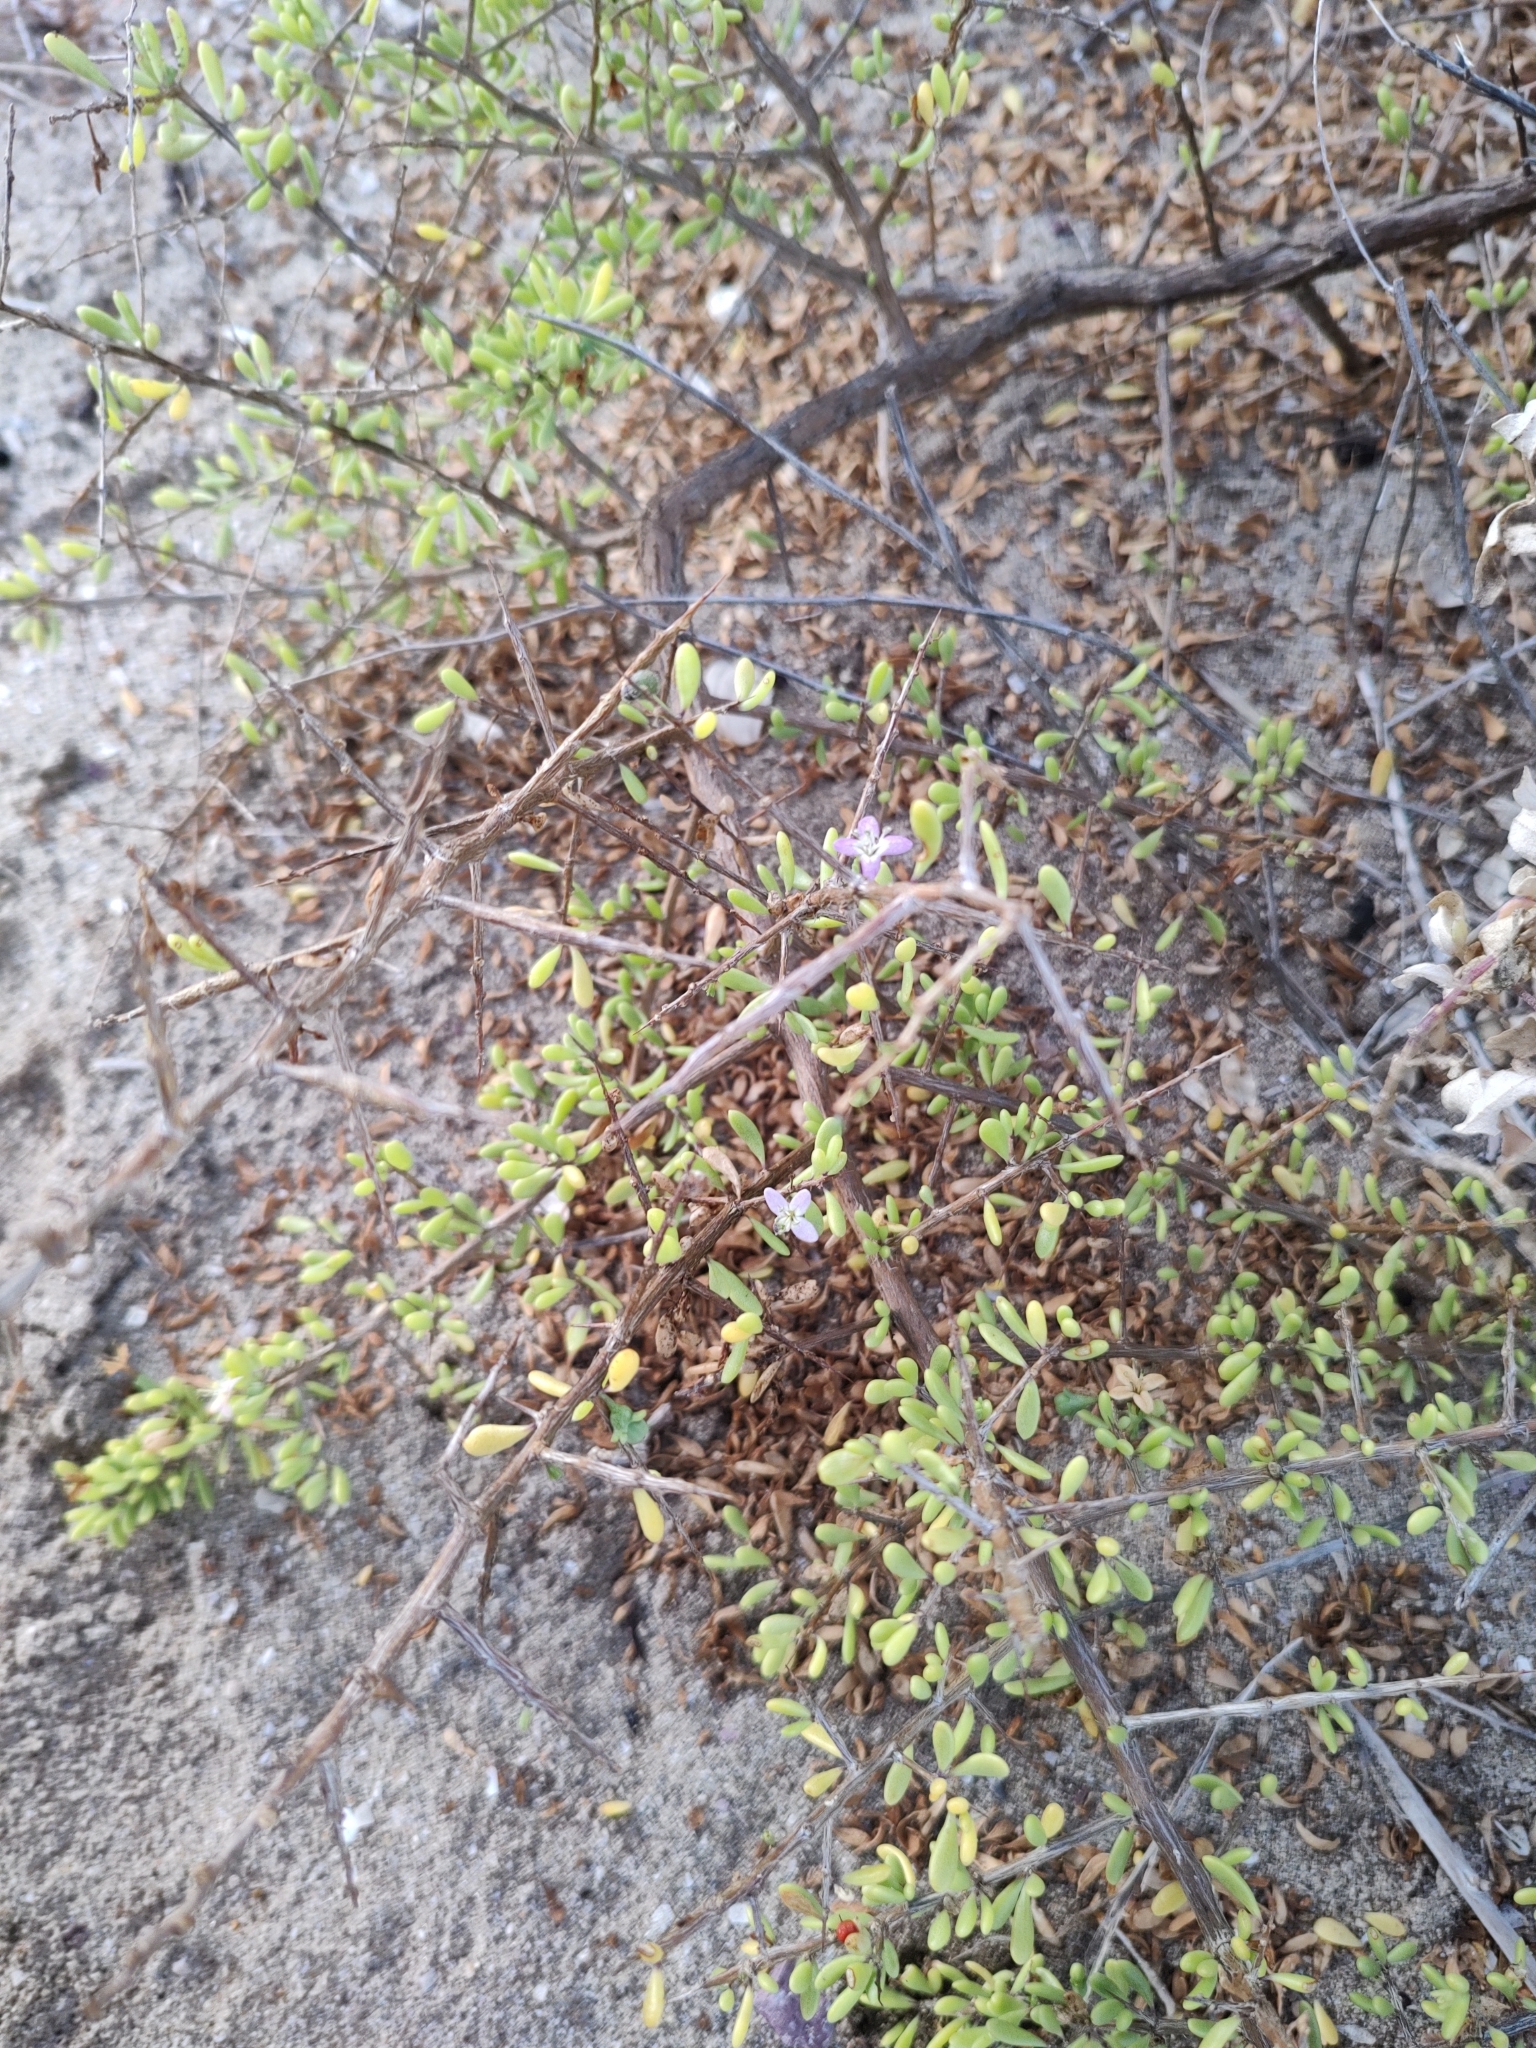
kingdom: Plantae
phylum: Tracheophyta
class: Magnoliopsida
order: Solanales
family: Solanaceae
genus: Lycium
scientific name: Lycium brevipes
